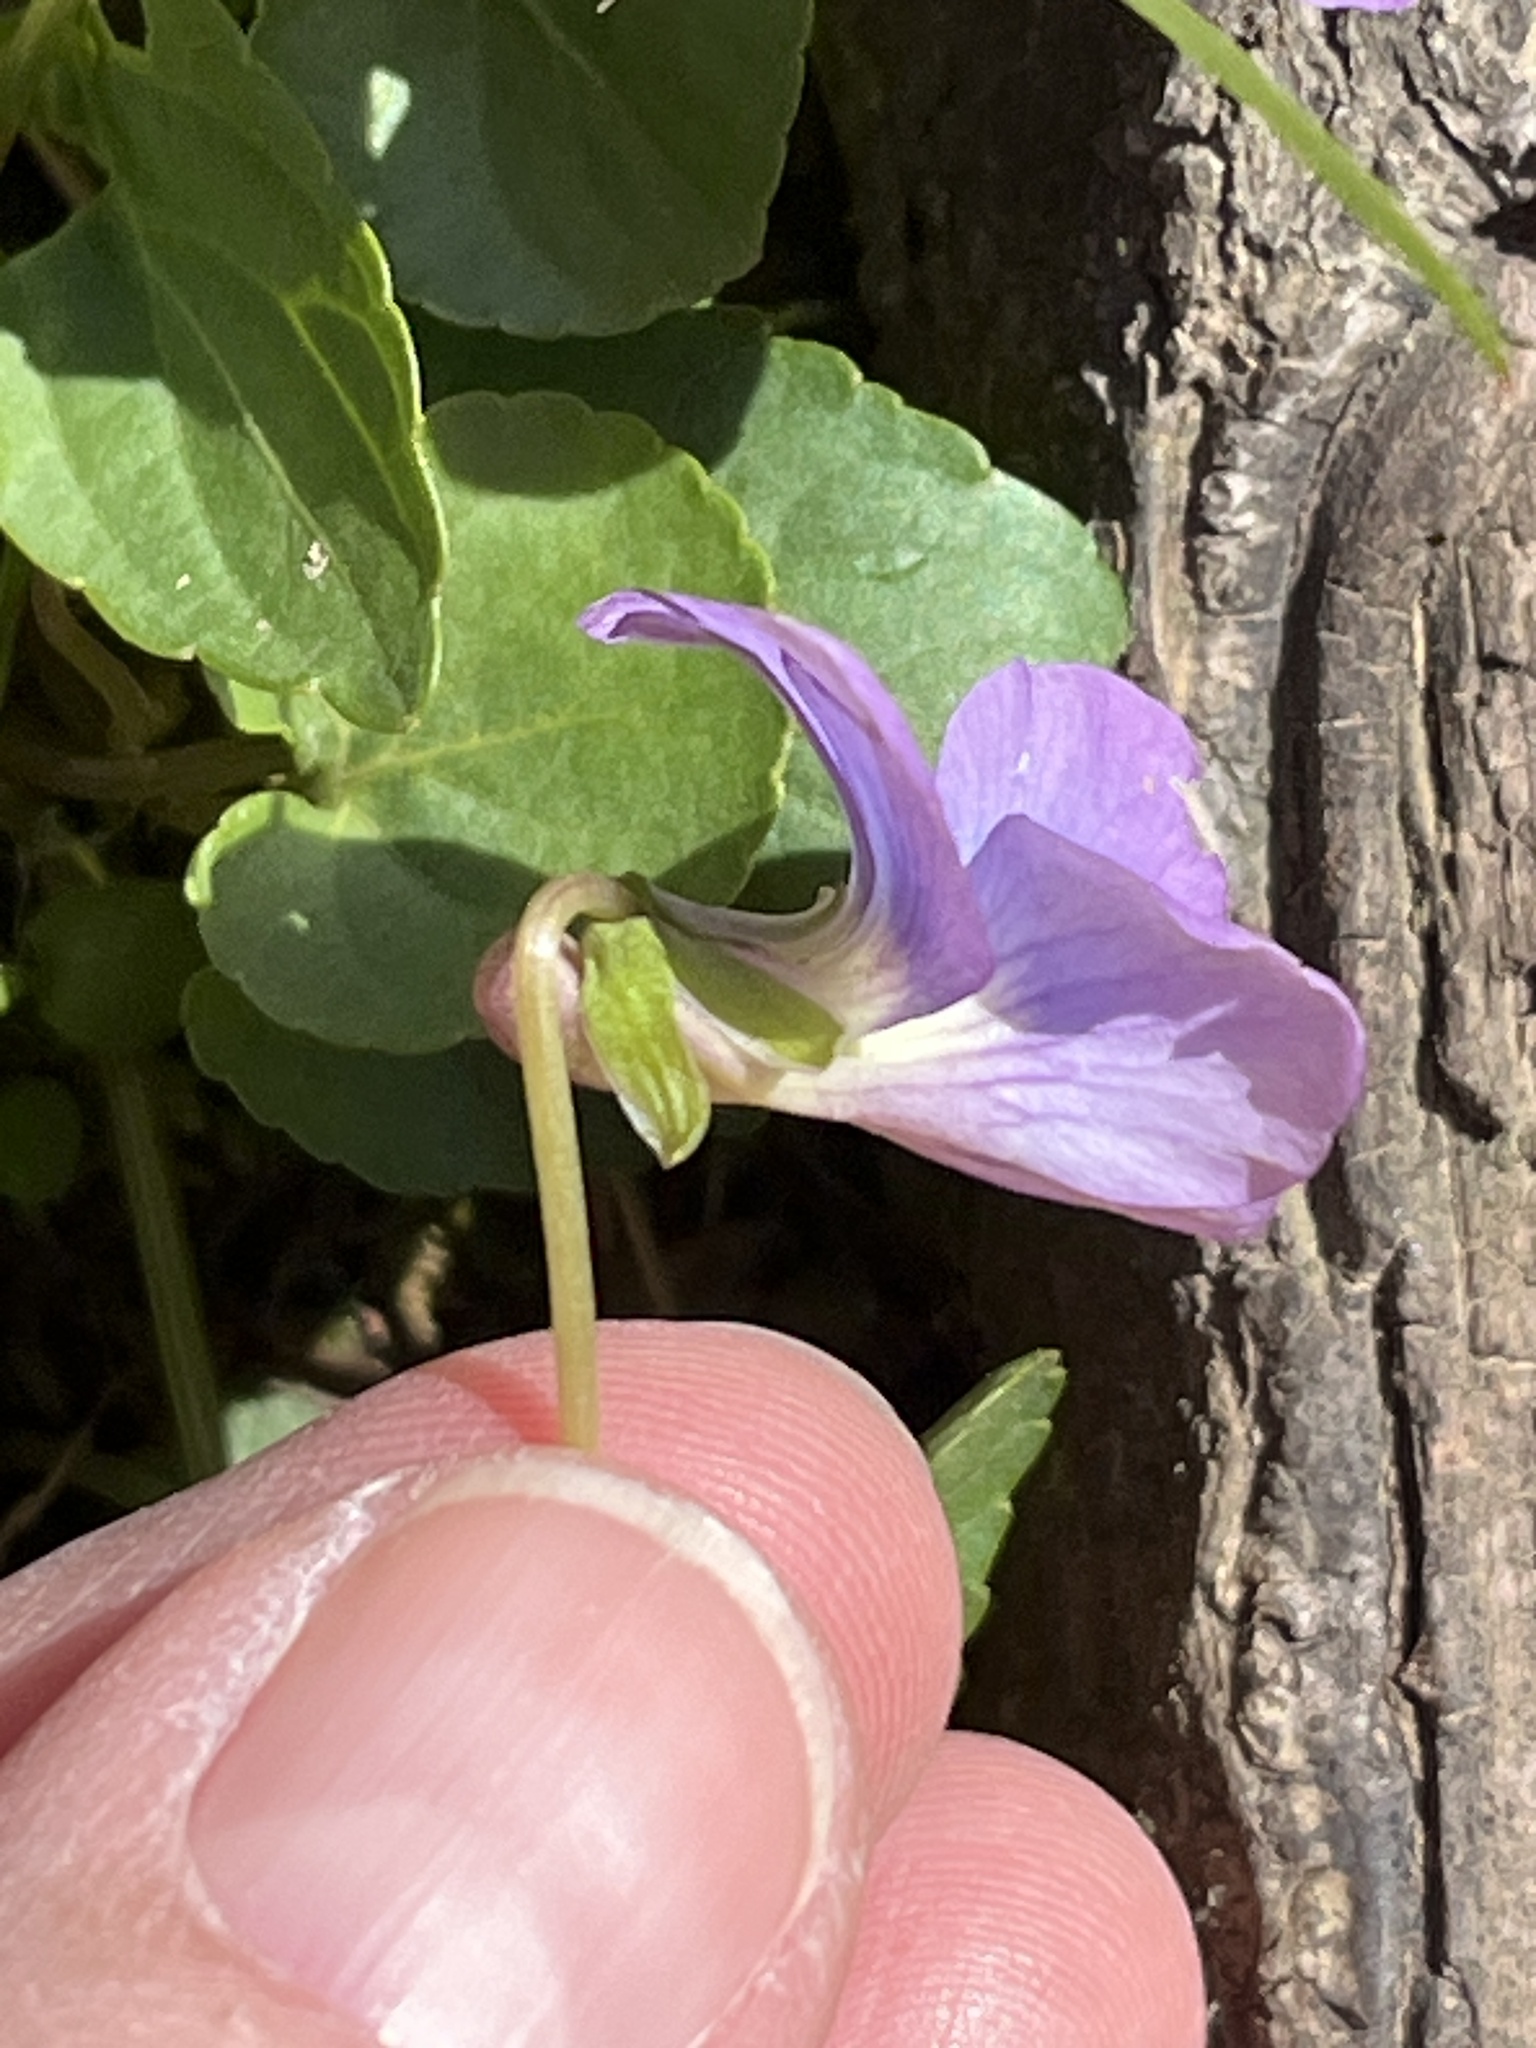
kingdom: Plantae
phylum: Tracheophyta
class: Magnoliopsida
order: Malpighiales
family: Violaceae
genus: Viola
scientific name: Viola sororia
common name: Dooryard violet
